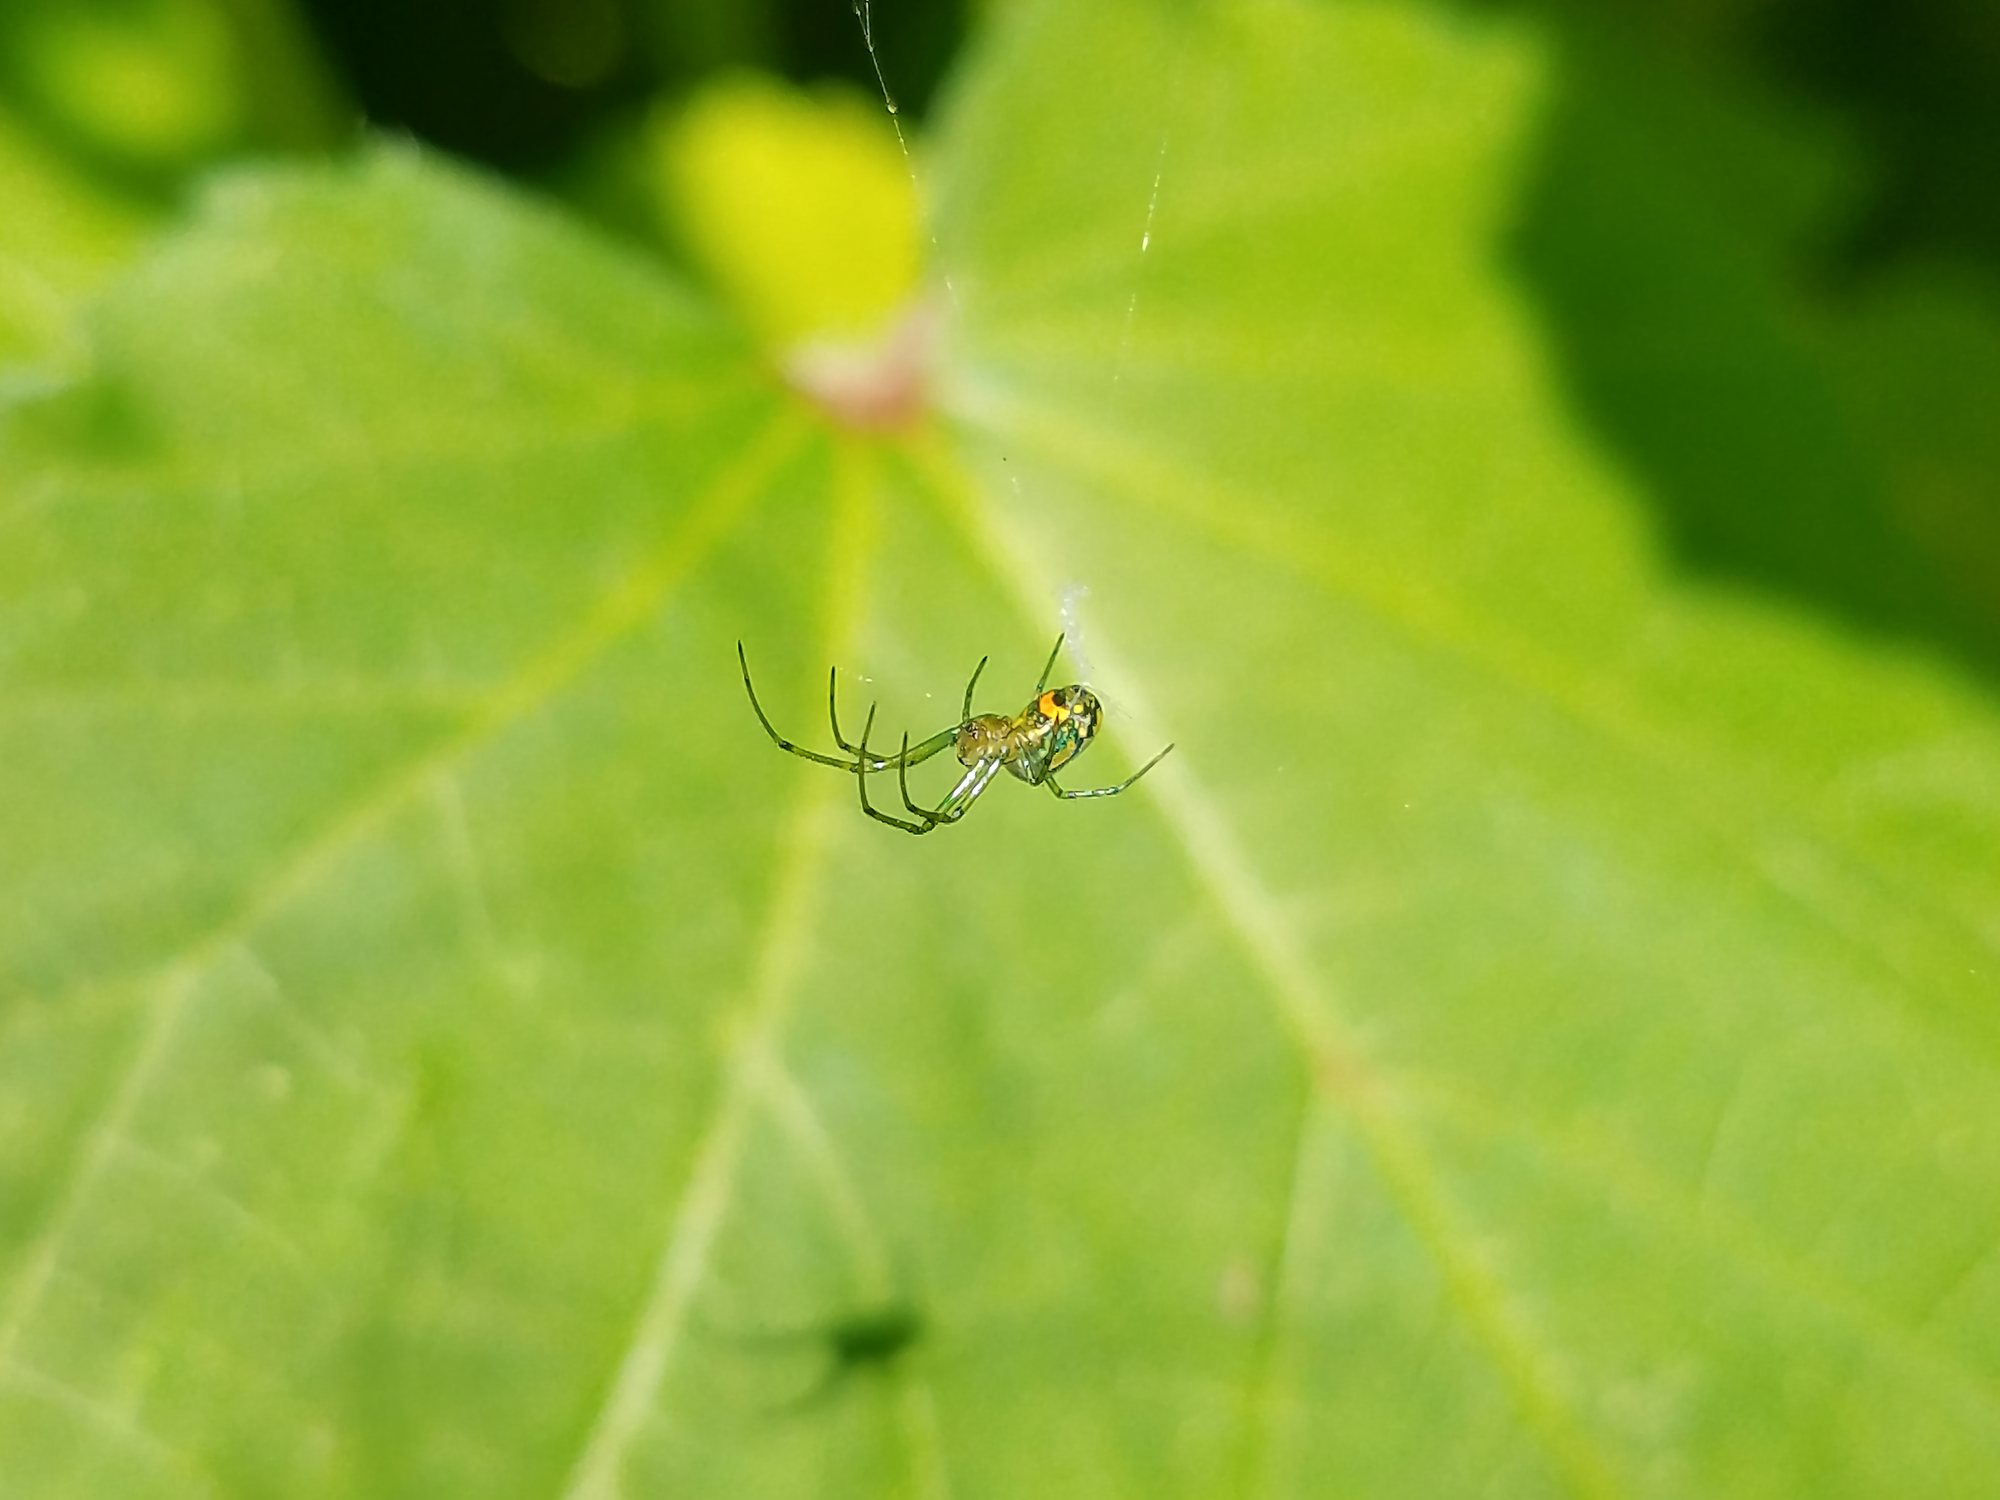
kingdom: Animalia
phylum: Arthropoda
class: Arachnida
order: Araneae
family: Tetragnathidae
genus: Leucauge
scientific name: Leucauge venusta
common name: Longjawed orb weavers
